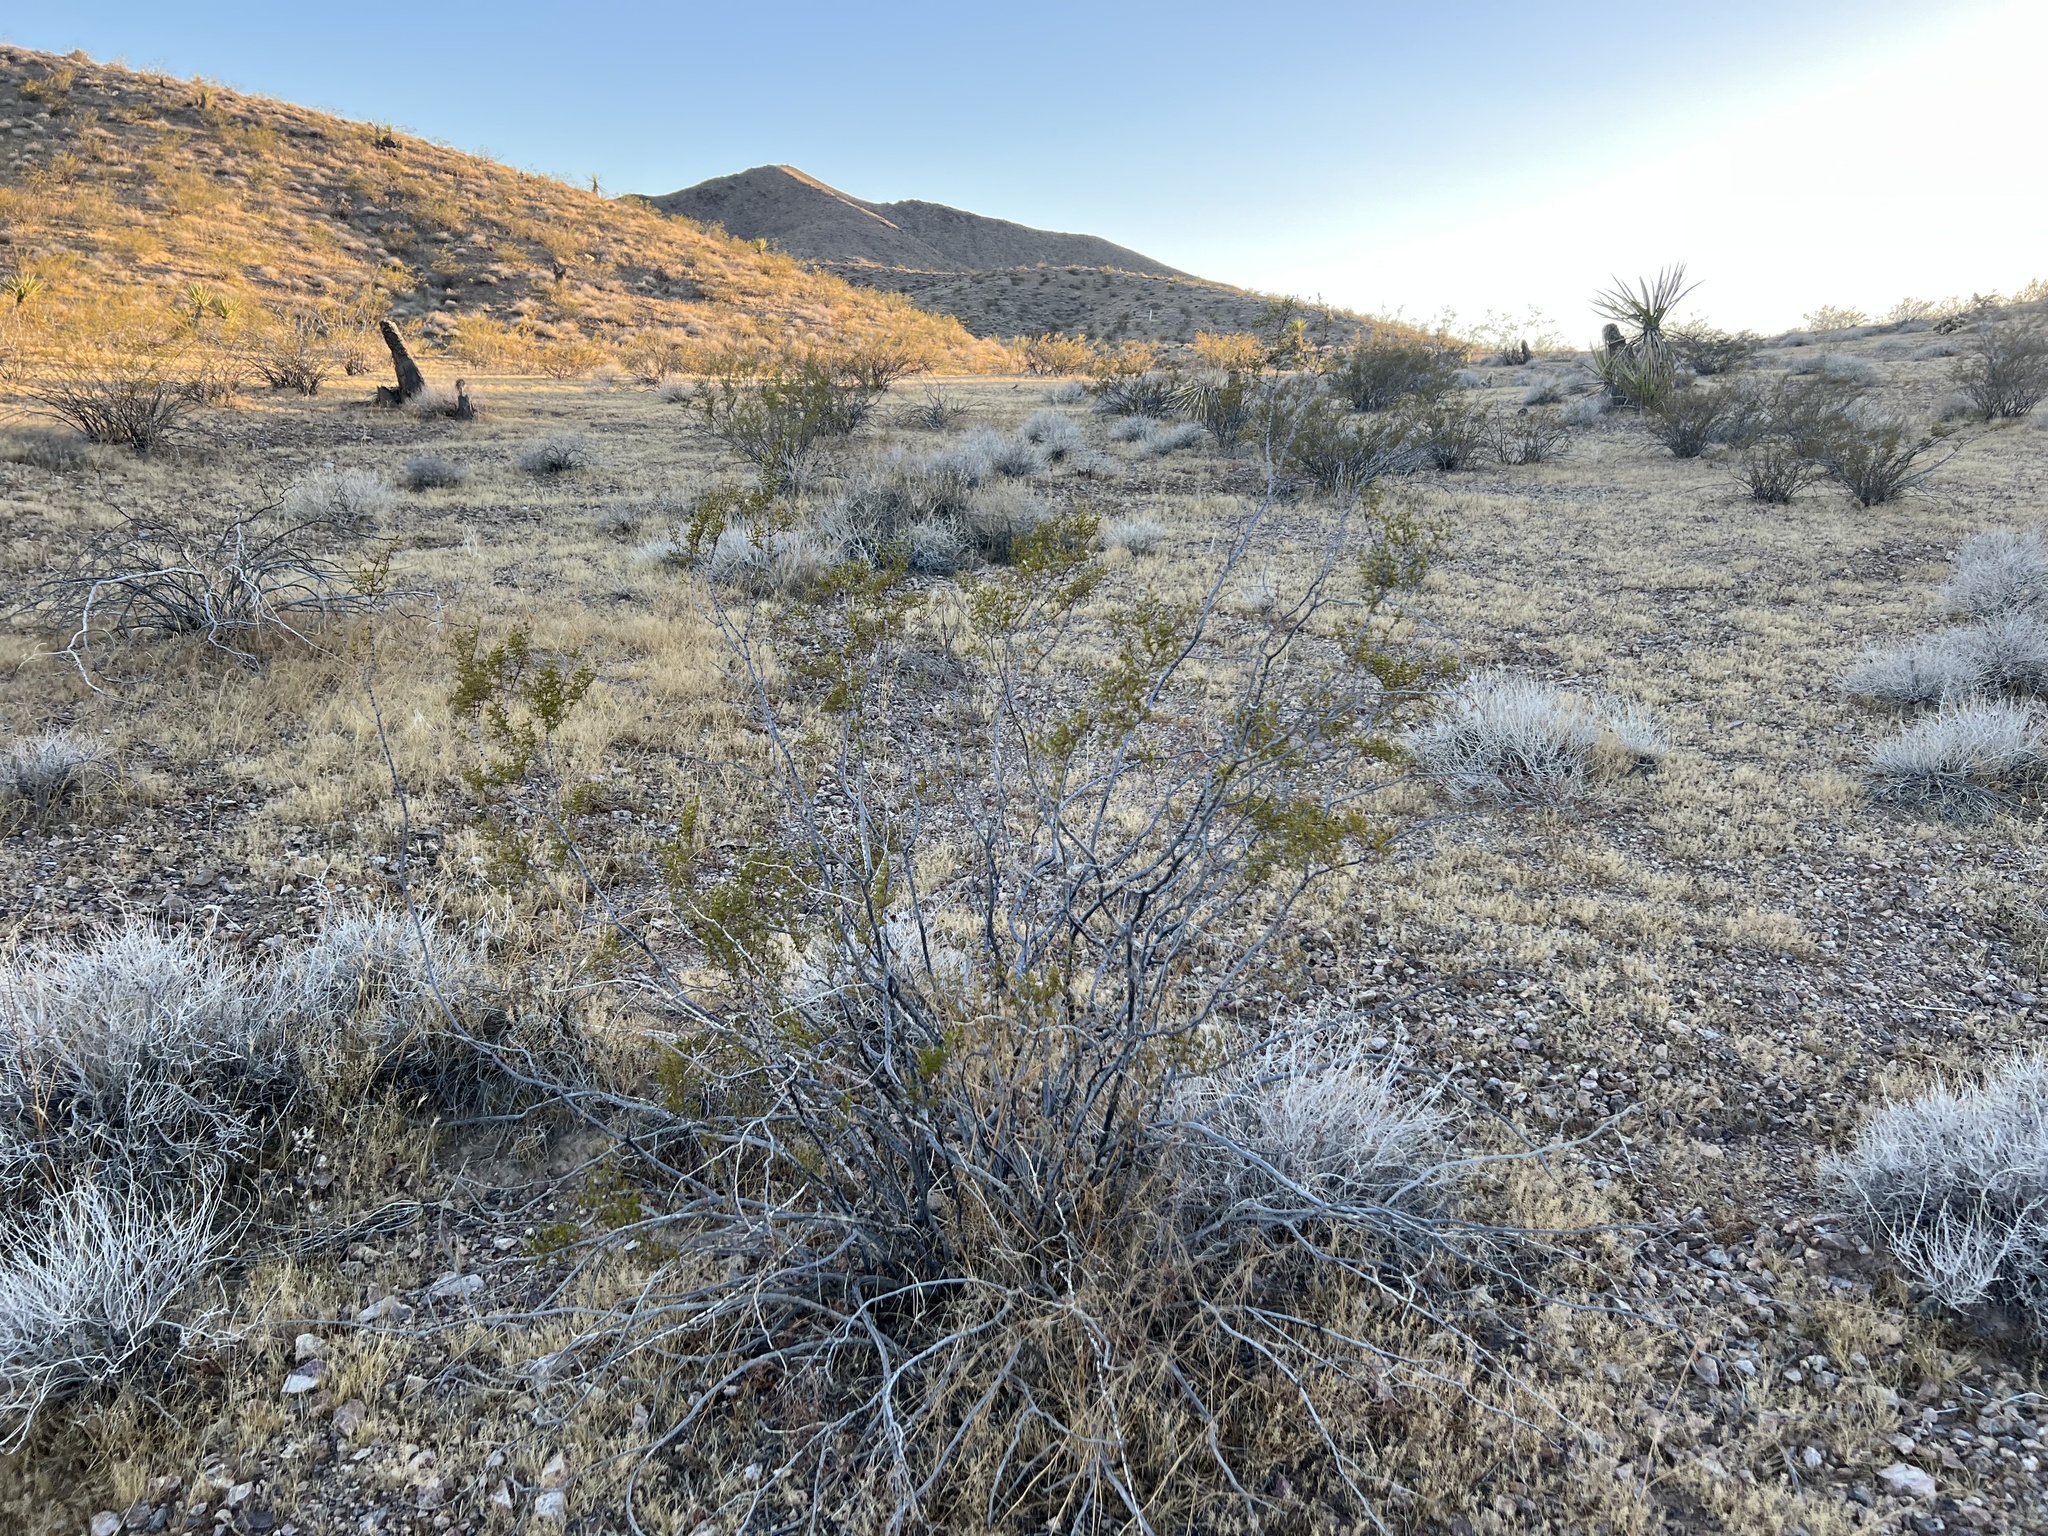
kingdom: Plantae
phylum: Tracheophyta
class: Magnoliopsida
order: Zygophyllales
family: Zygophyllaceae
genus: Larrea
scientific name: Larrea tridentata
